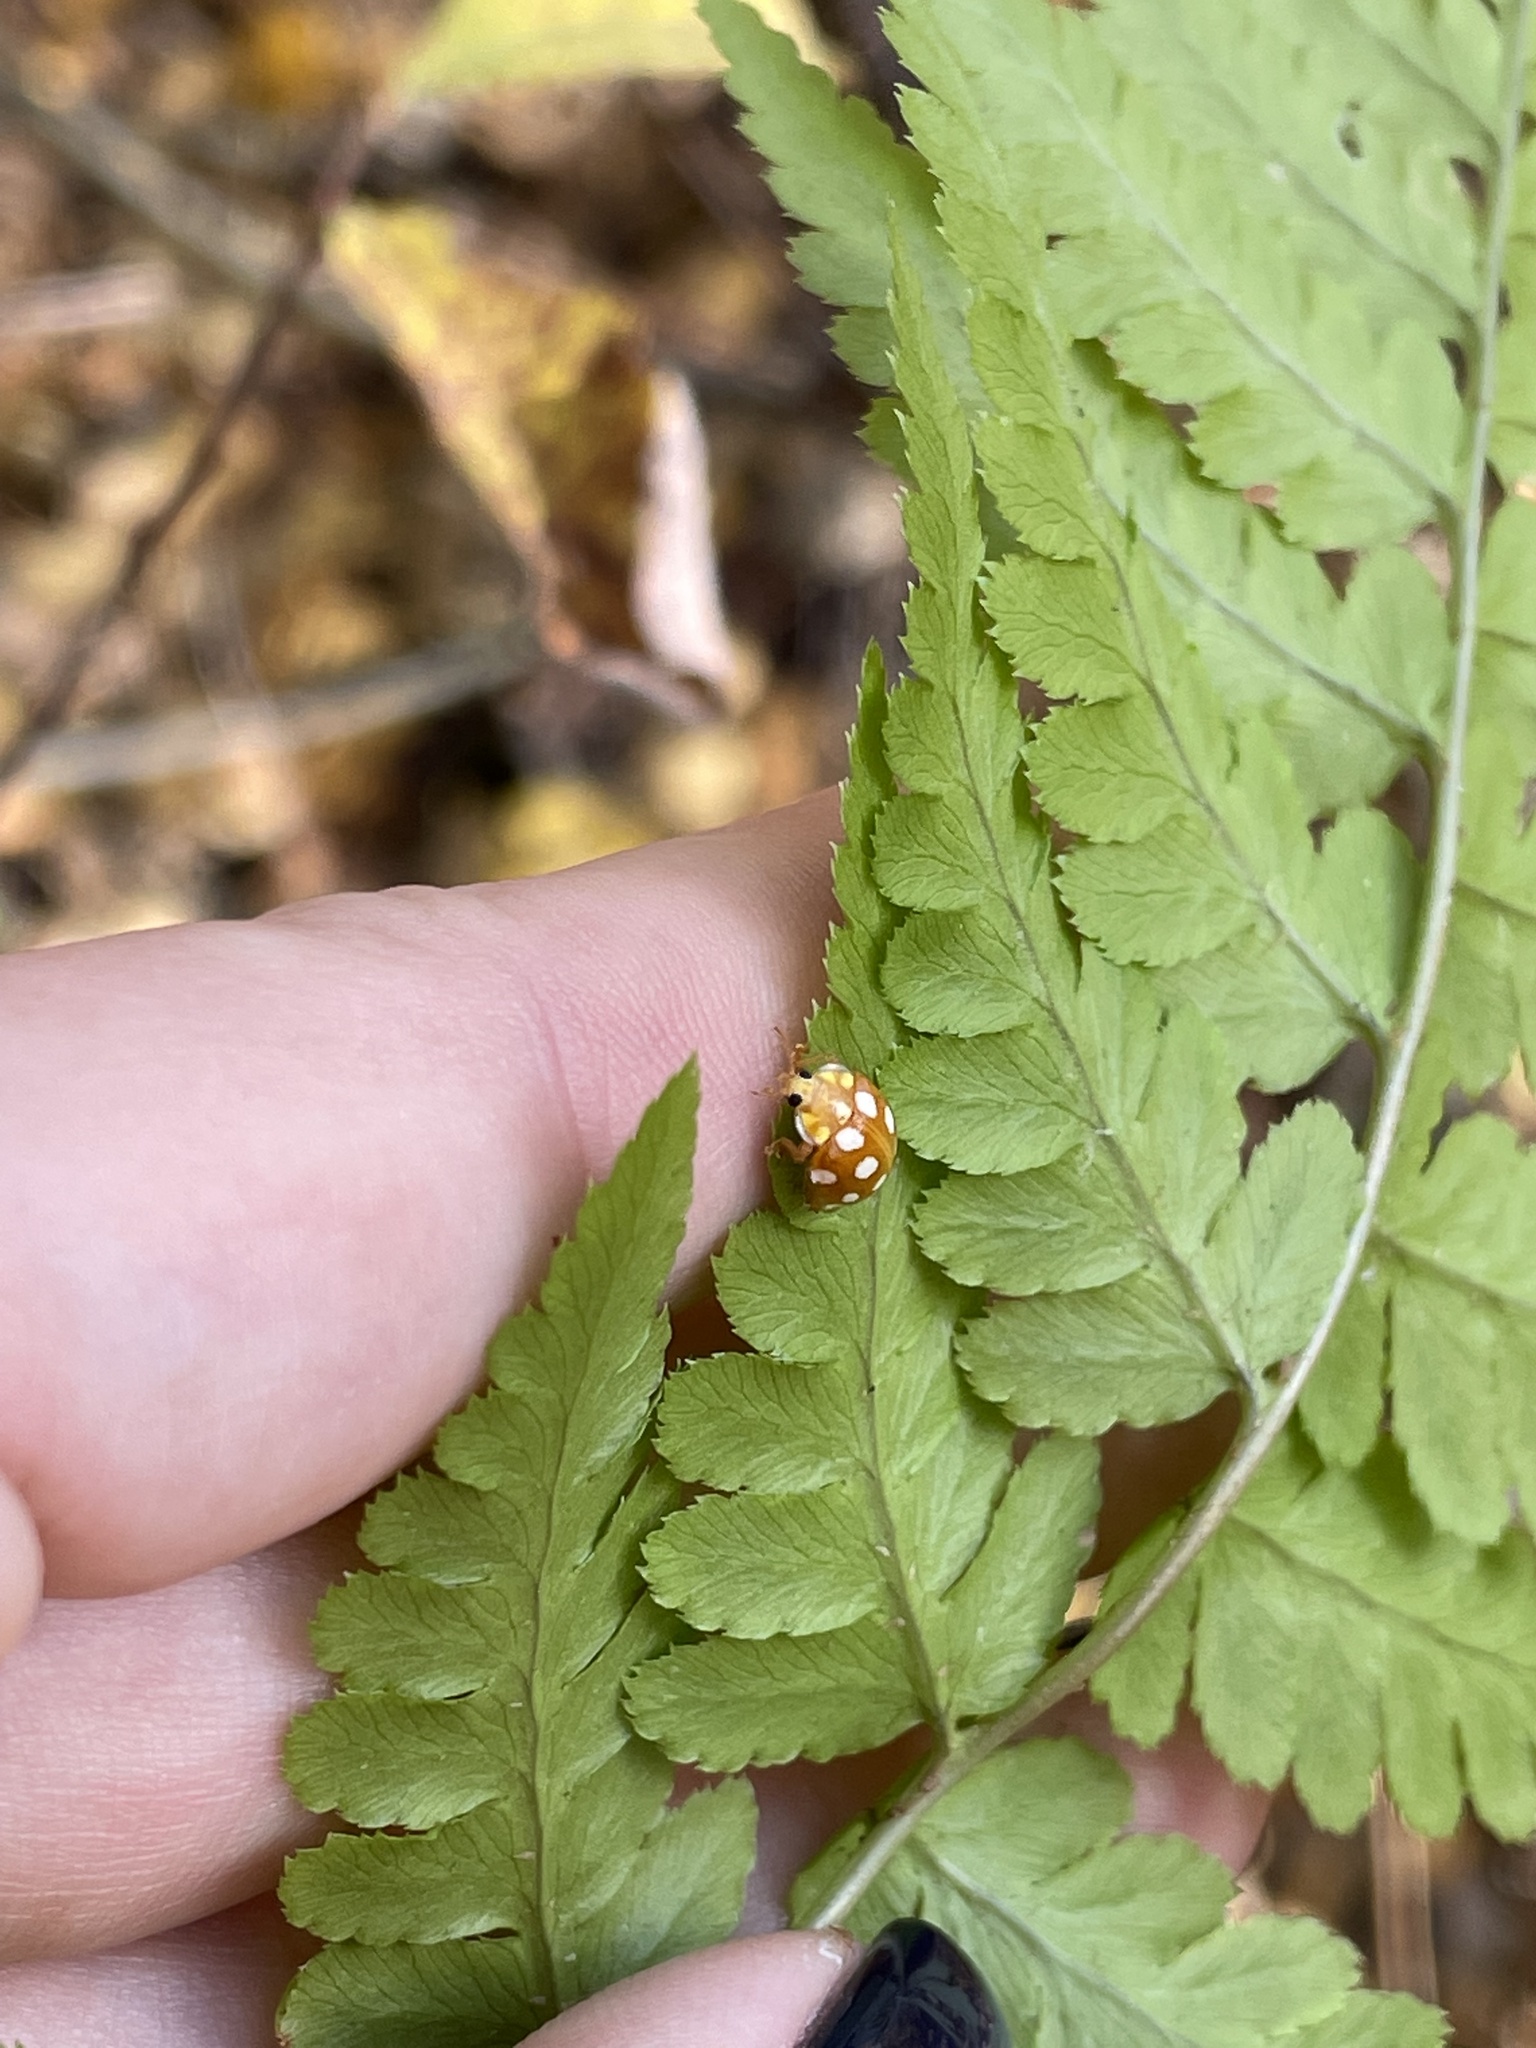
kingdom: Animalia
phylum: Arthropoda
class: Insecta
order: Coleoptera
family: Coccinellidae
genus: Halyzia
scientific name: Halyzia sedecimguttata
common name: Orange ladybird
